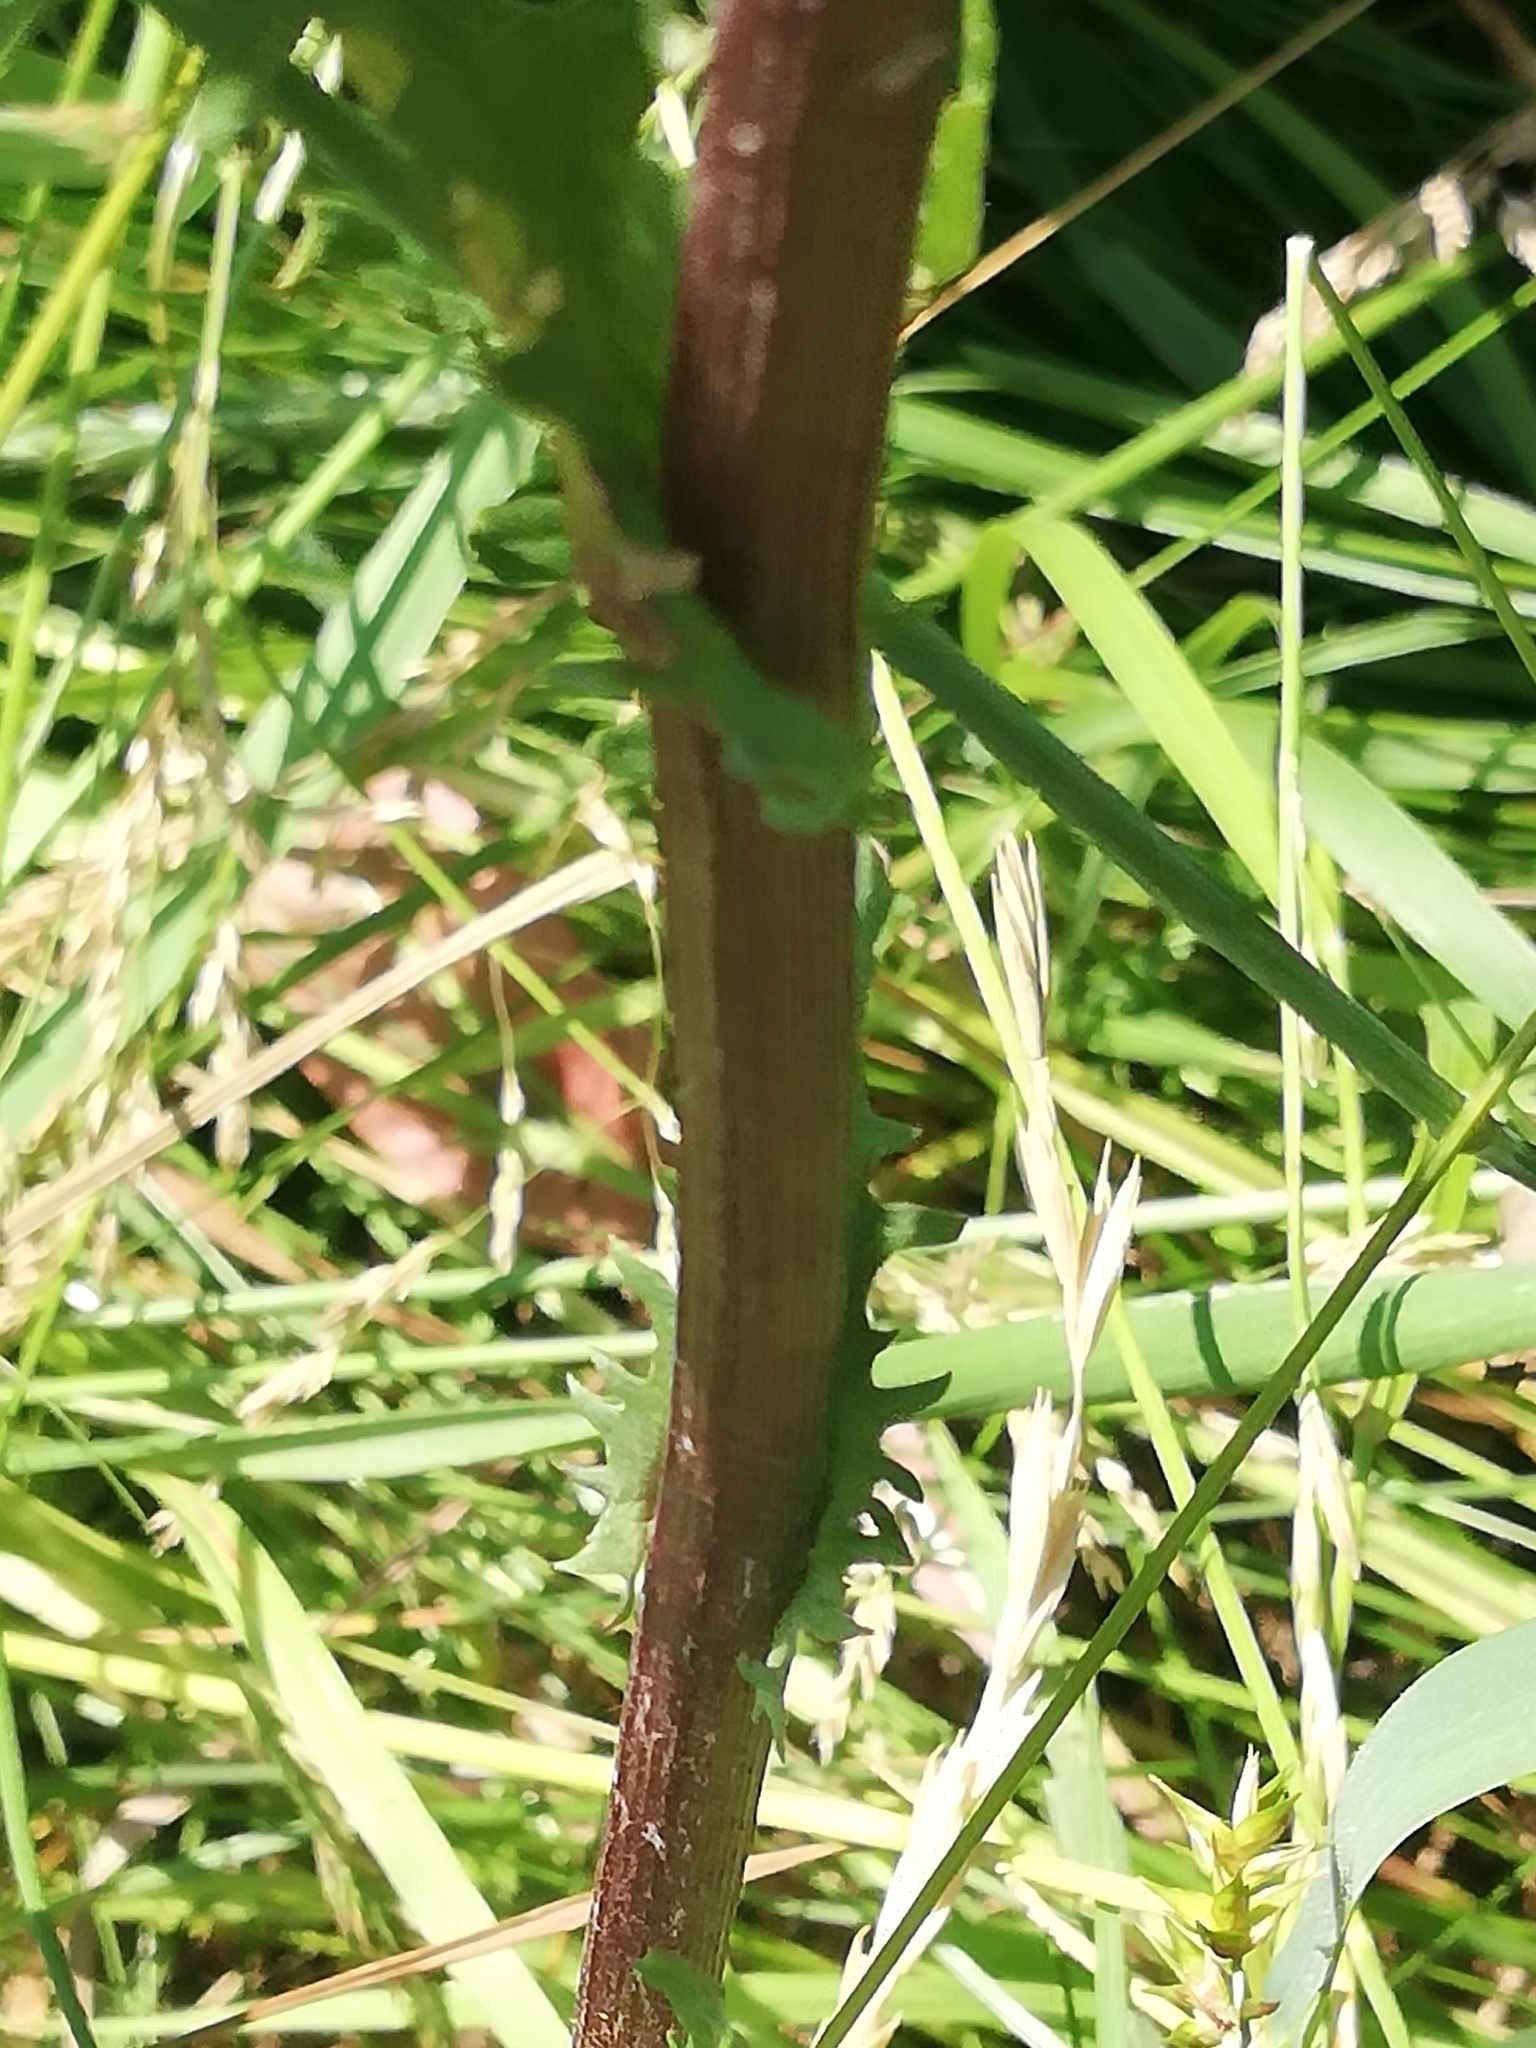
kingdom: Plantae
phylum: Tracheophyta
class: Magnoliopsida
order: Asterales
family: Asteraceae
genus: Jacobaea
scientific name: Jacobaea vulgaris
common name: Stinking willie
